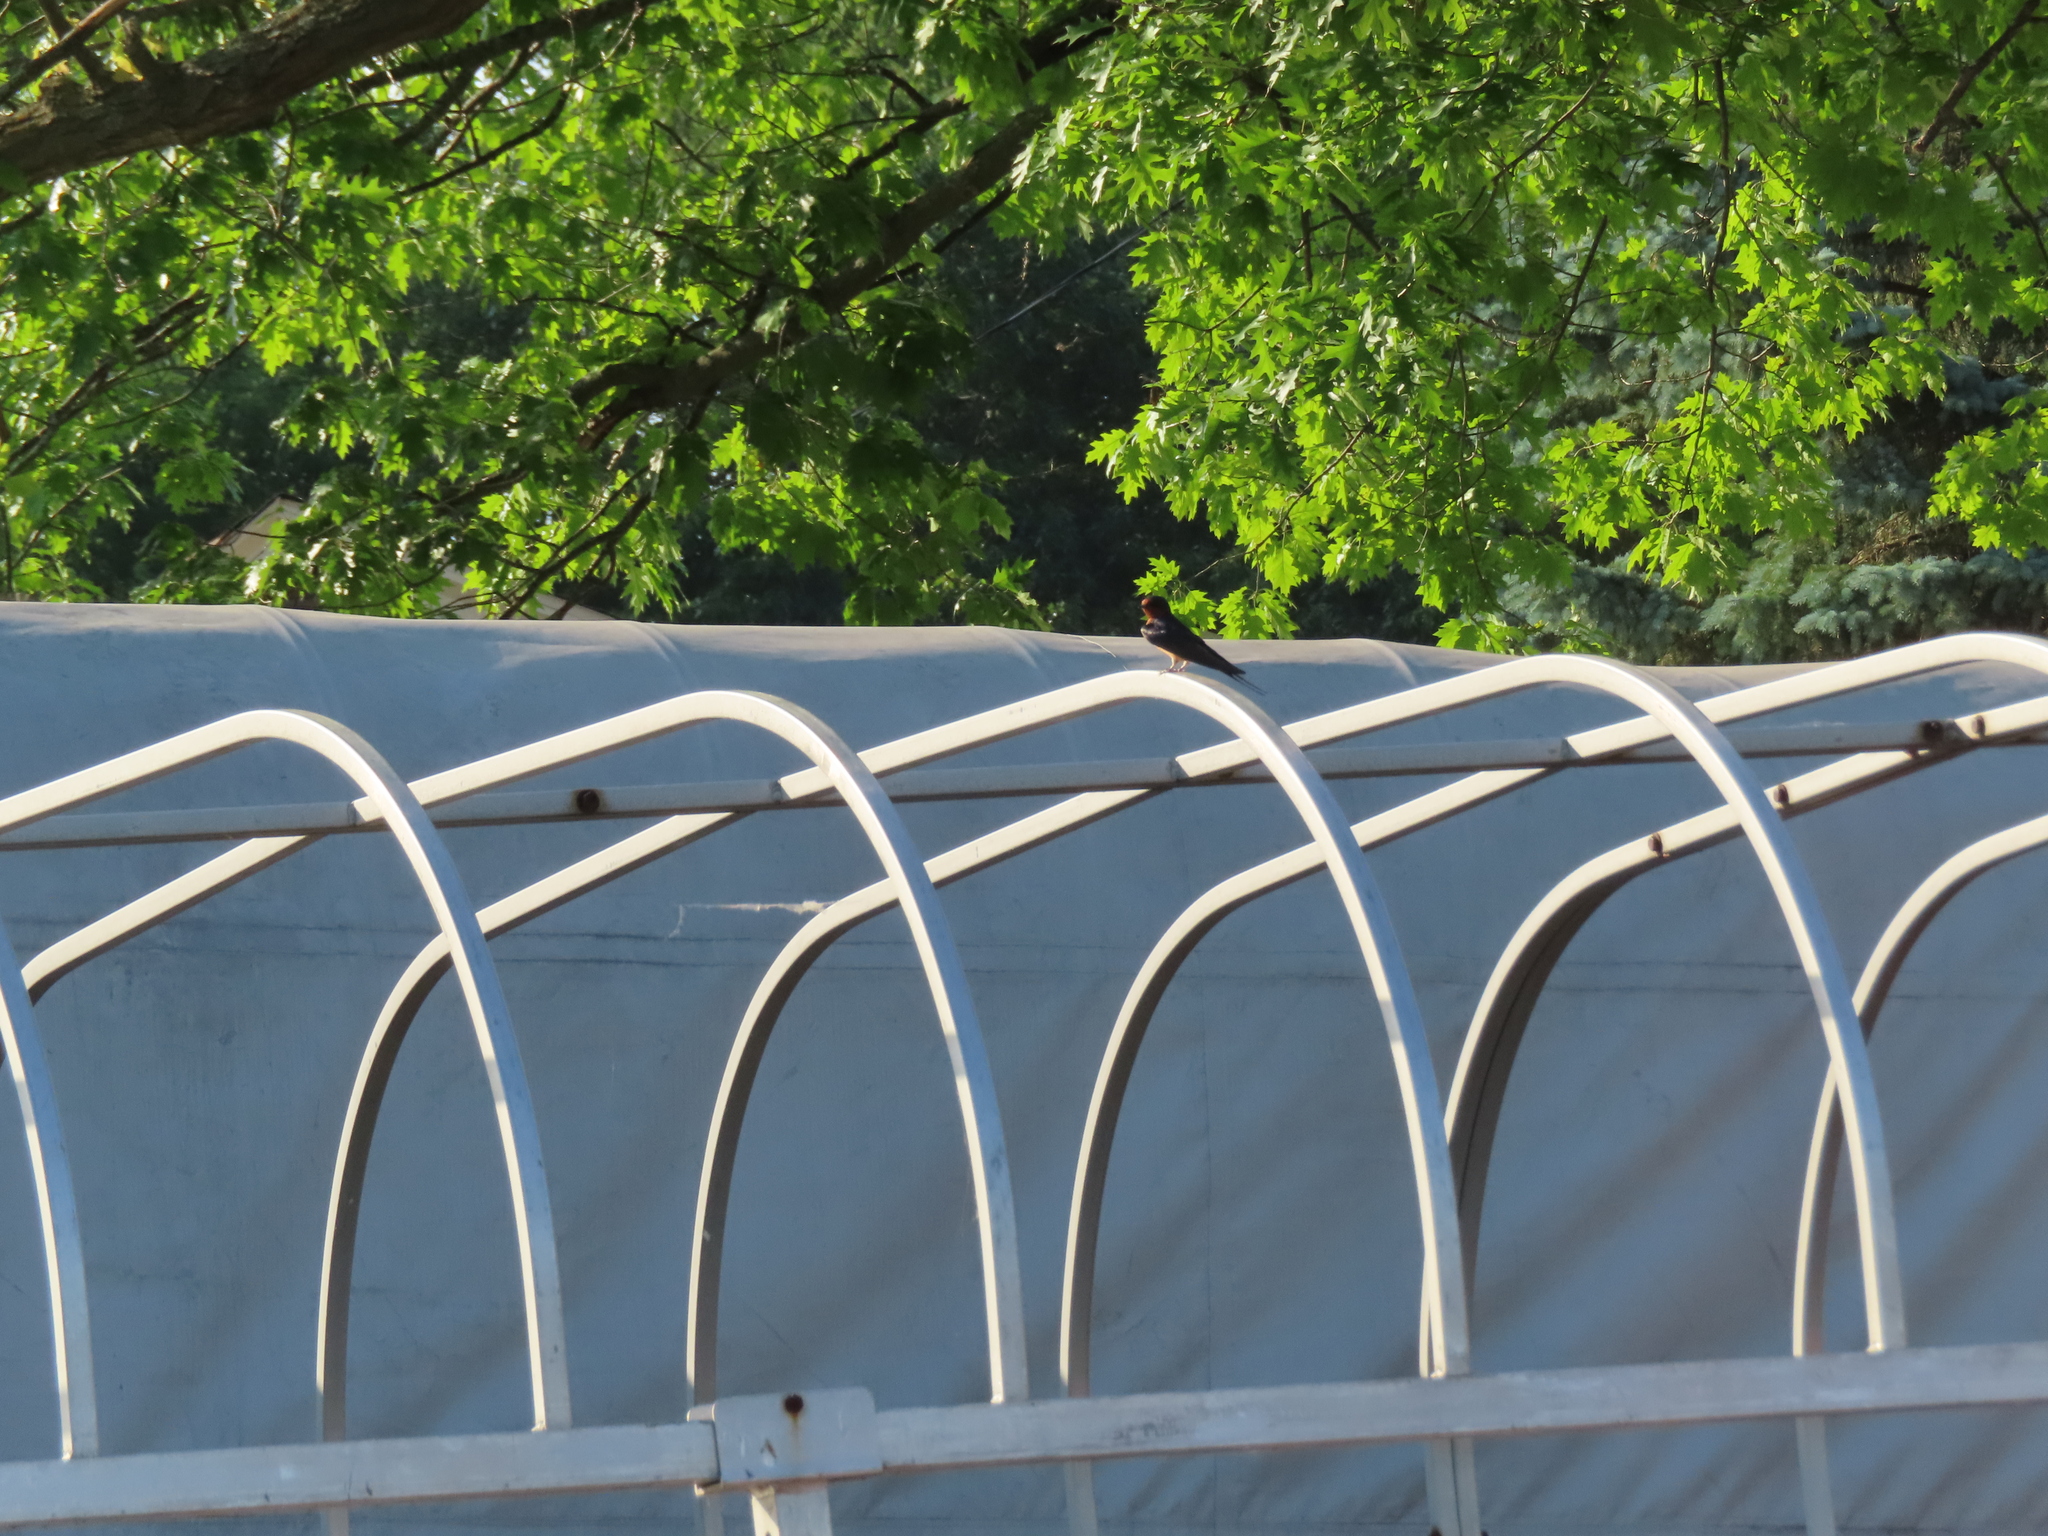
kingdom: Animalia
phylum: Chordata
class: Aves
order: Passeriformes
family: Hirundinidae
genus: Hirundo
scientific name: Hirundo rustica
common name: Barn swallow
